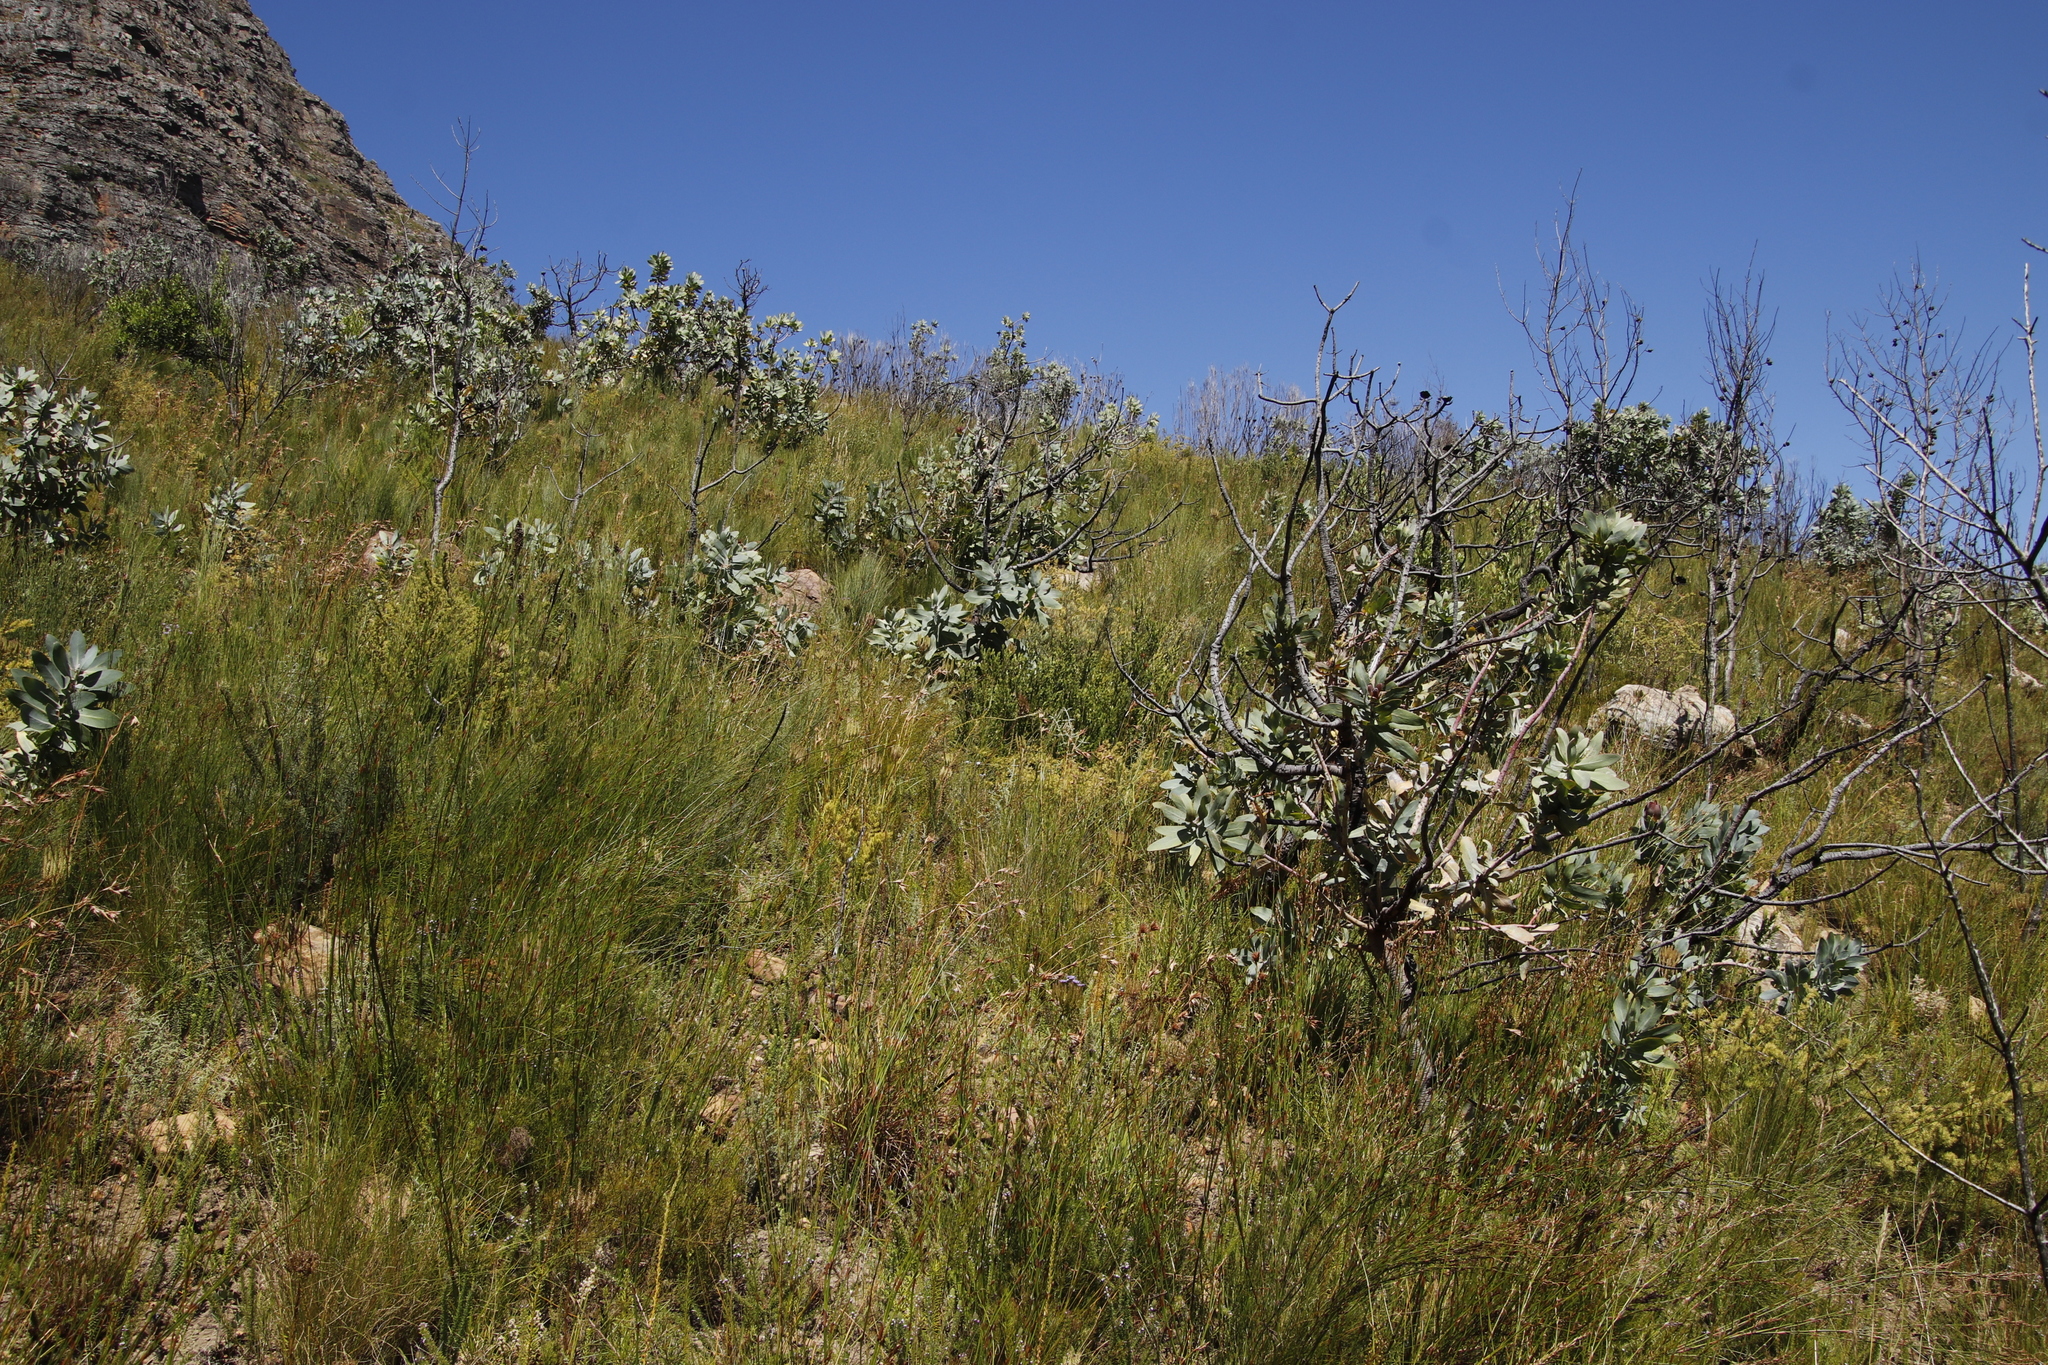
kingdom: Plantae
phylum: Tracheophyta
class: Magnoliopsida
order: Proteales
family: Proteaceae
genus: Protea
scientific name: Protea nitida
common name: Tree protea
